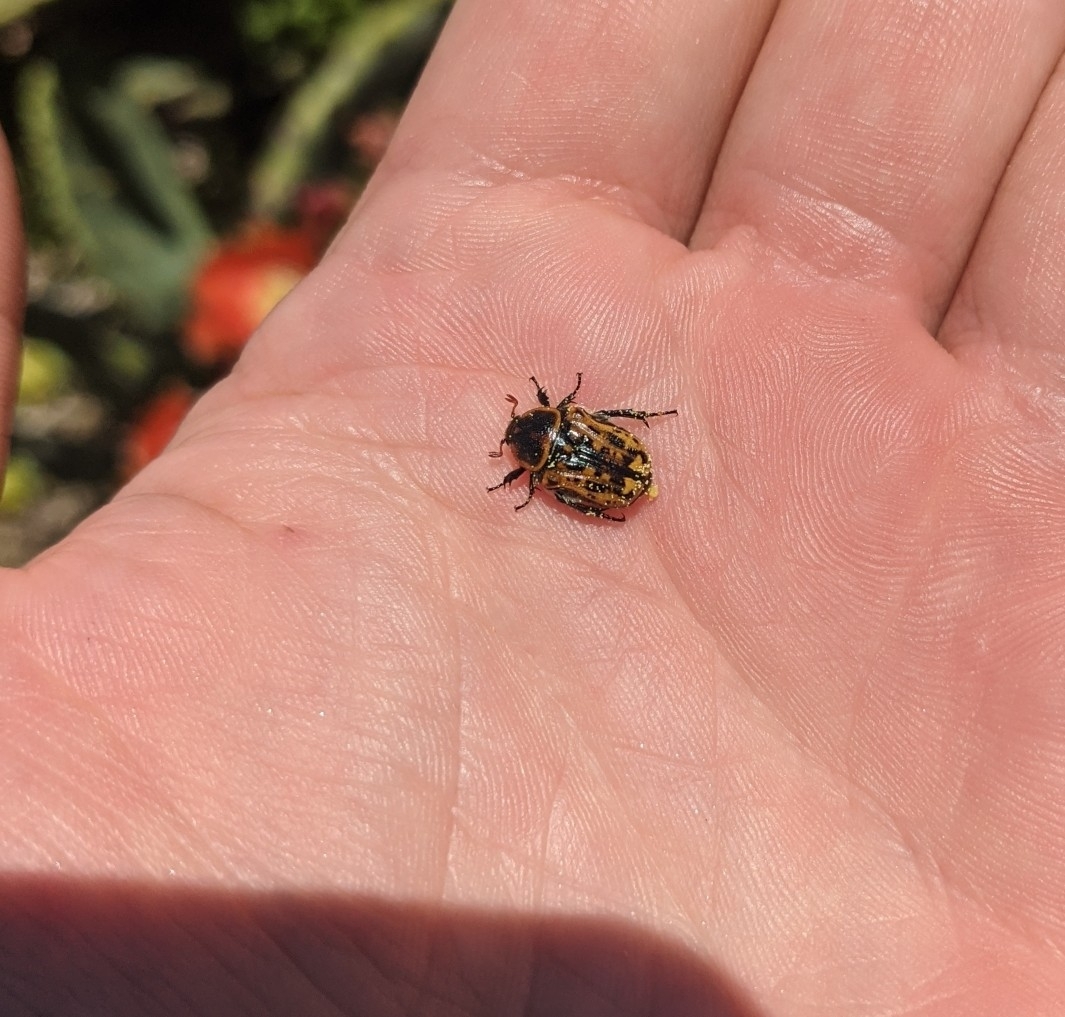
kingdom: Animalia
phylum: Arthropoda
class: Insecta
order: Coleoptera
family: Scarabaeidae
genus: Euphoria
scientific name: Euphoria kernii
